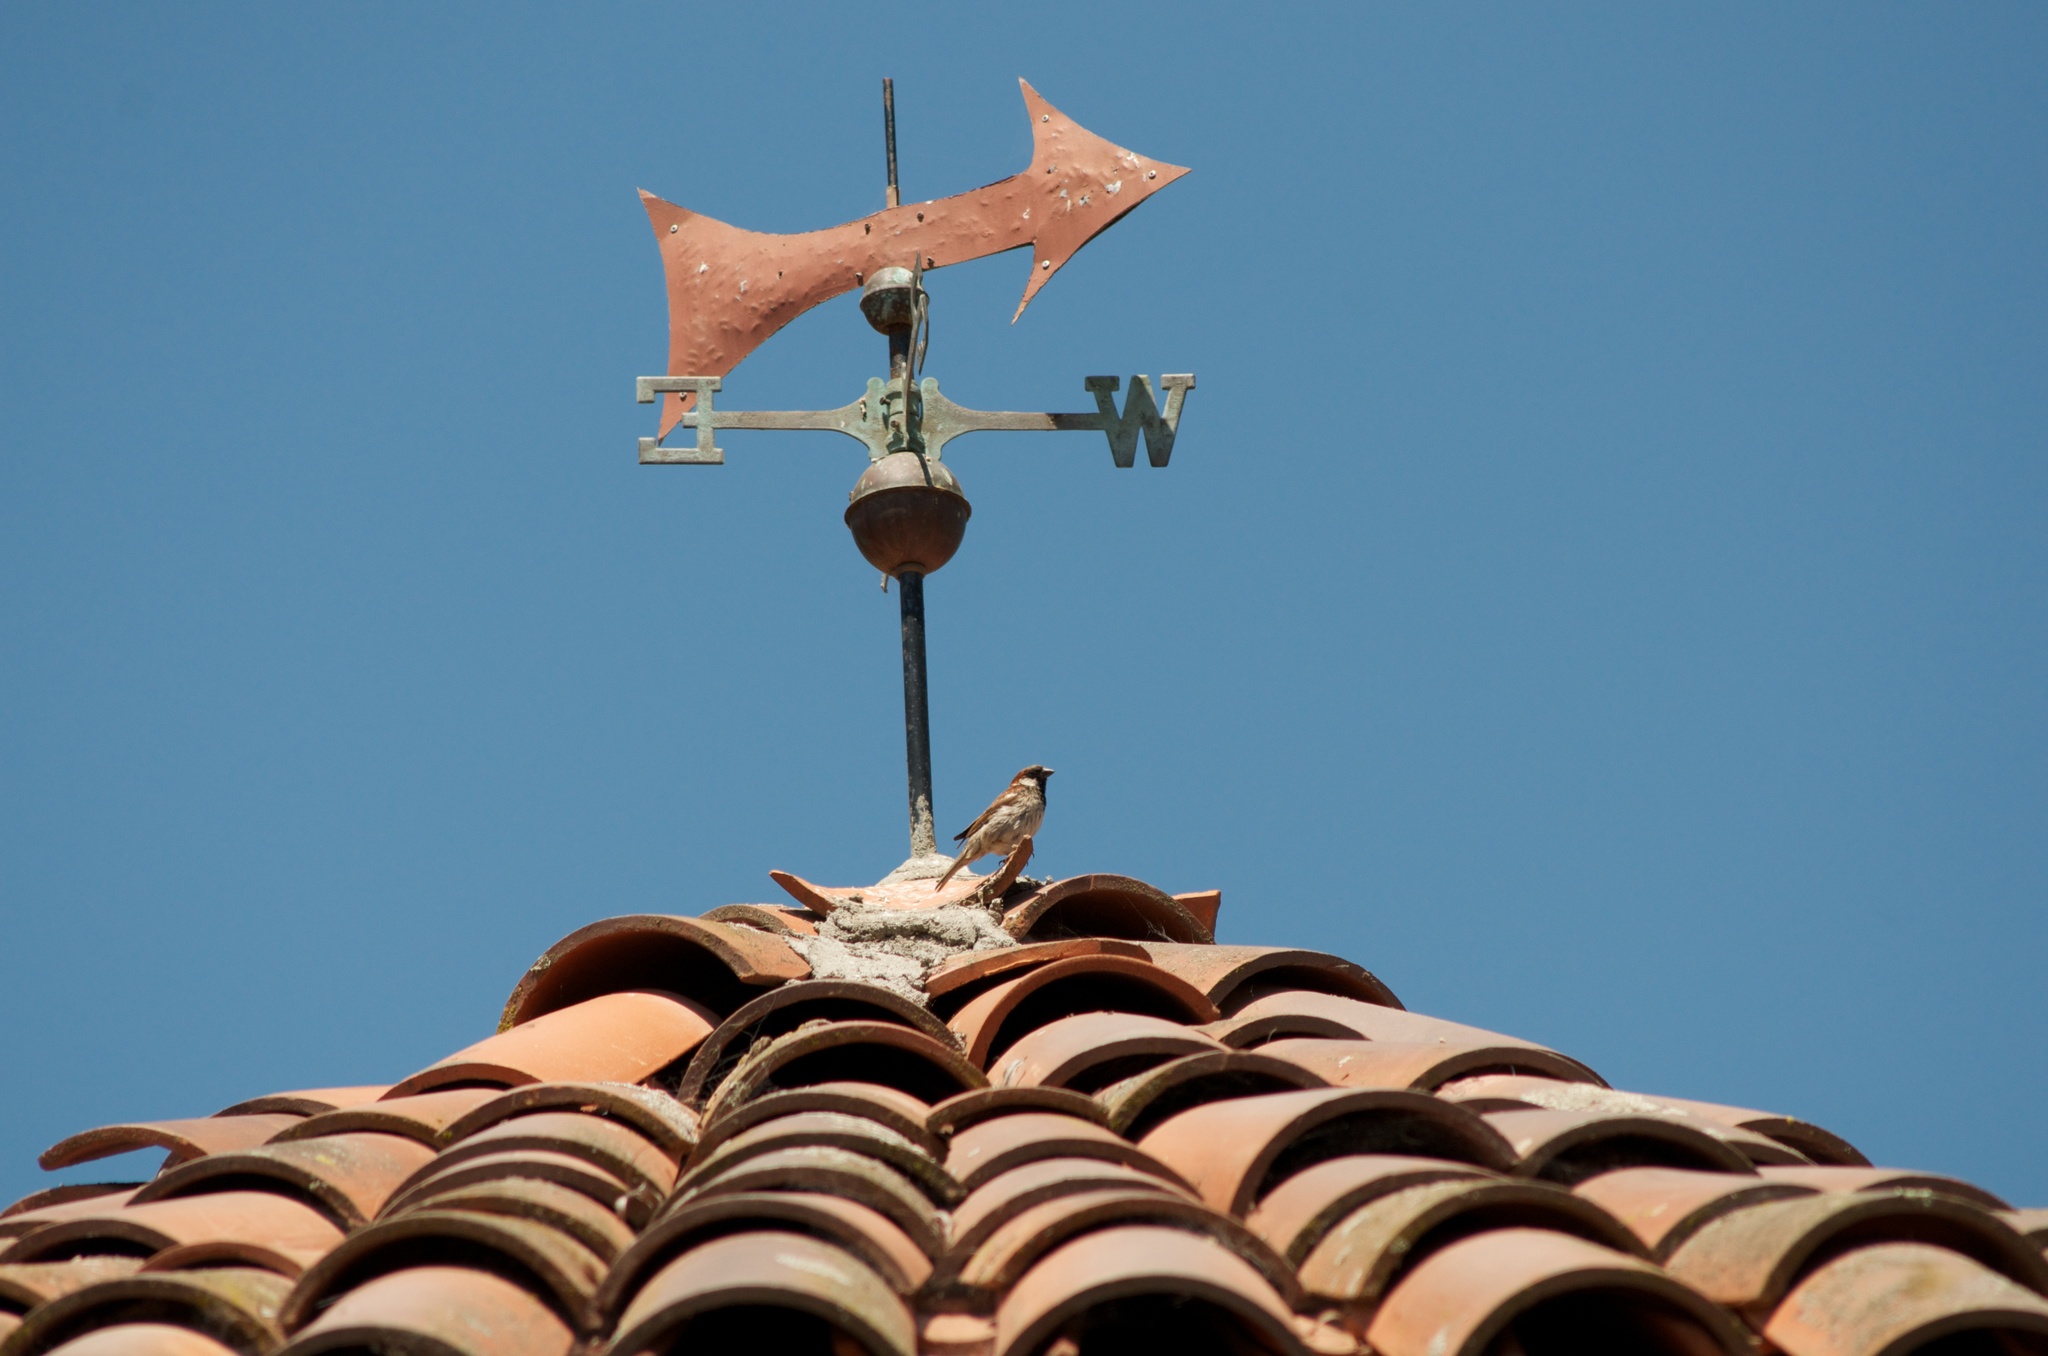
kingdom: Animalia
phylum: Chordata
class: Aves
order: Passeriformes
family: Passeridae
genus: Passer
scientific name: Passer domesticus
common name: House sparrow
